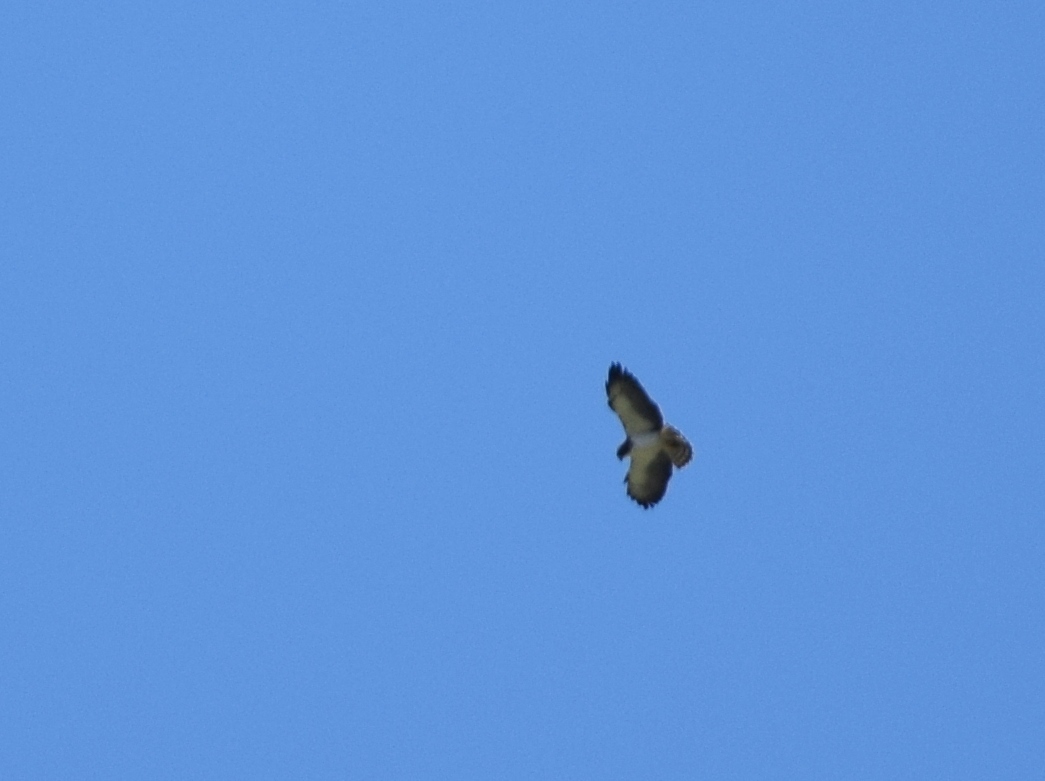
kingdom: Animalia
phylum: Chordata
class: Aves
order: Accipitriformes
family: Accipitridae
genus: Buteo
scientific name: Buteo brachyurus
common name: Short-tailed hawk
